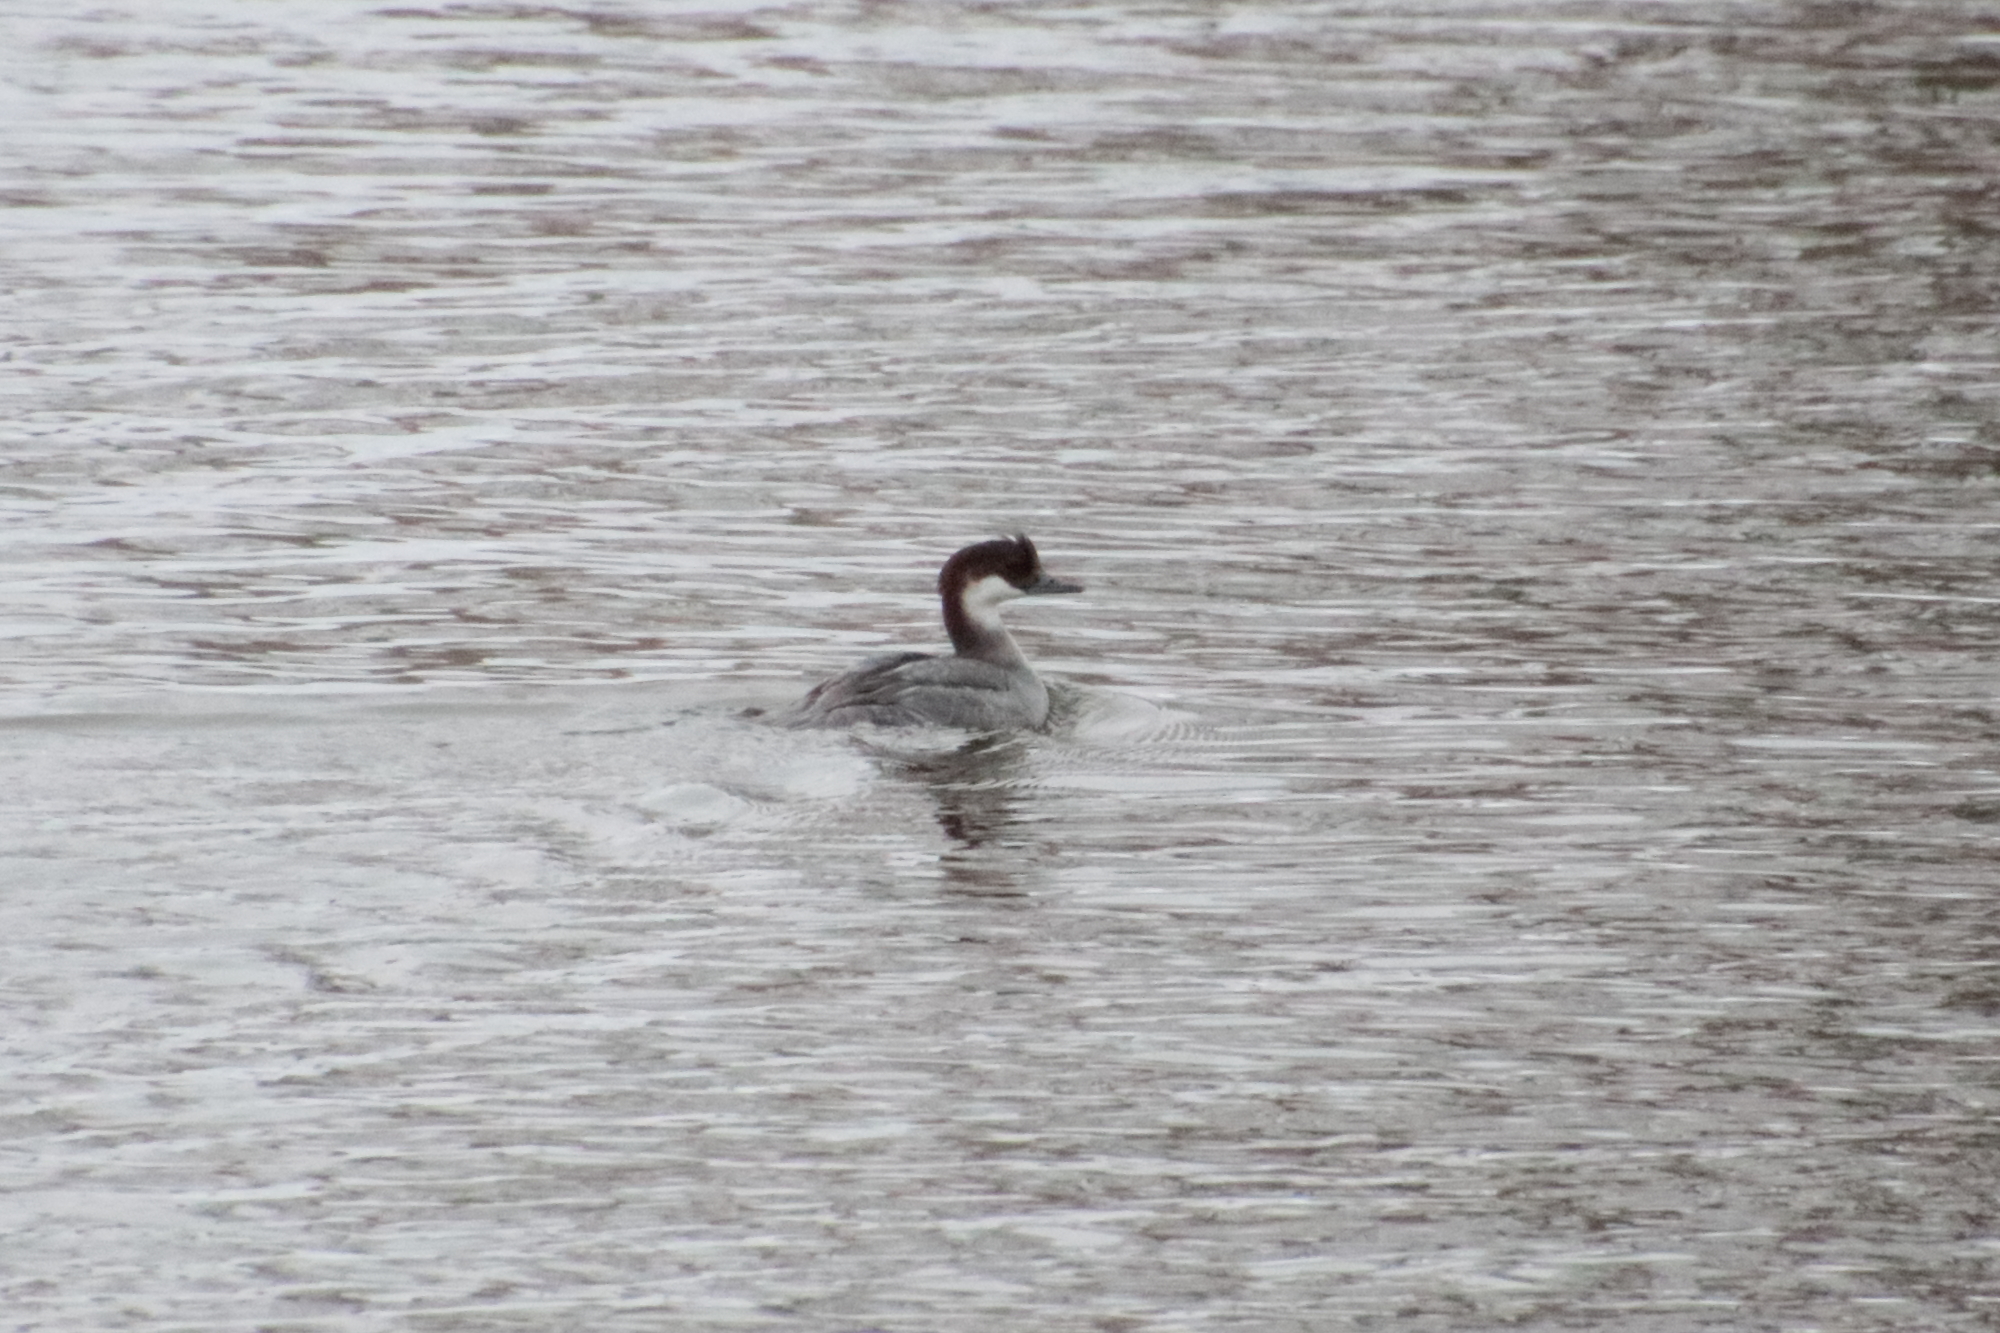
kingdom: Animalia
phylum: Chordata
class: Aves
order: Anseriformes
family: Anatidae
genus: Mergellus
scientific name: Mergellus albellus
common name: Smew
